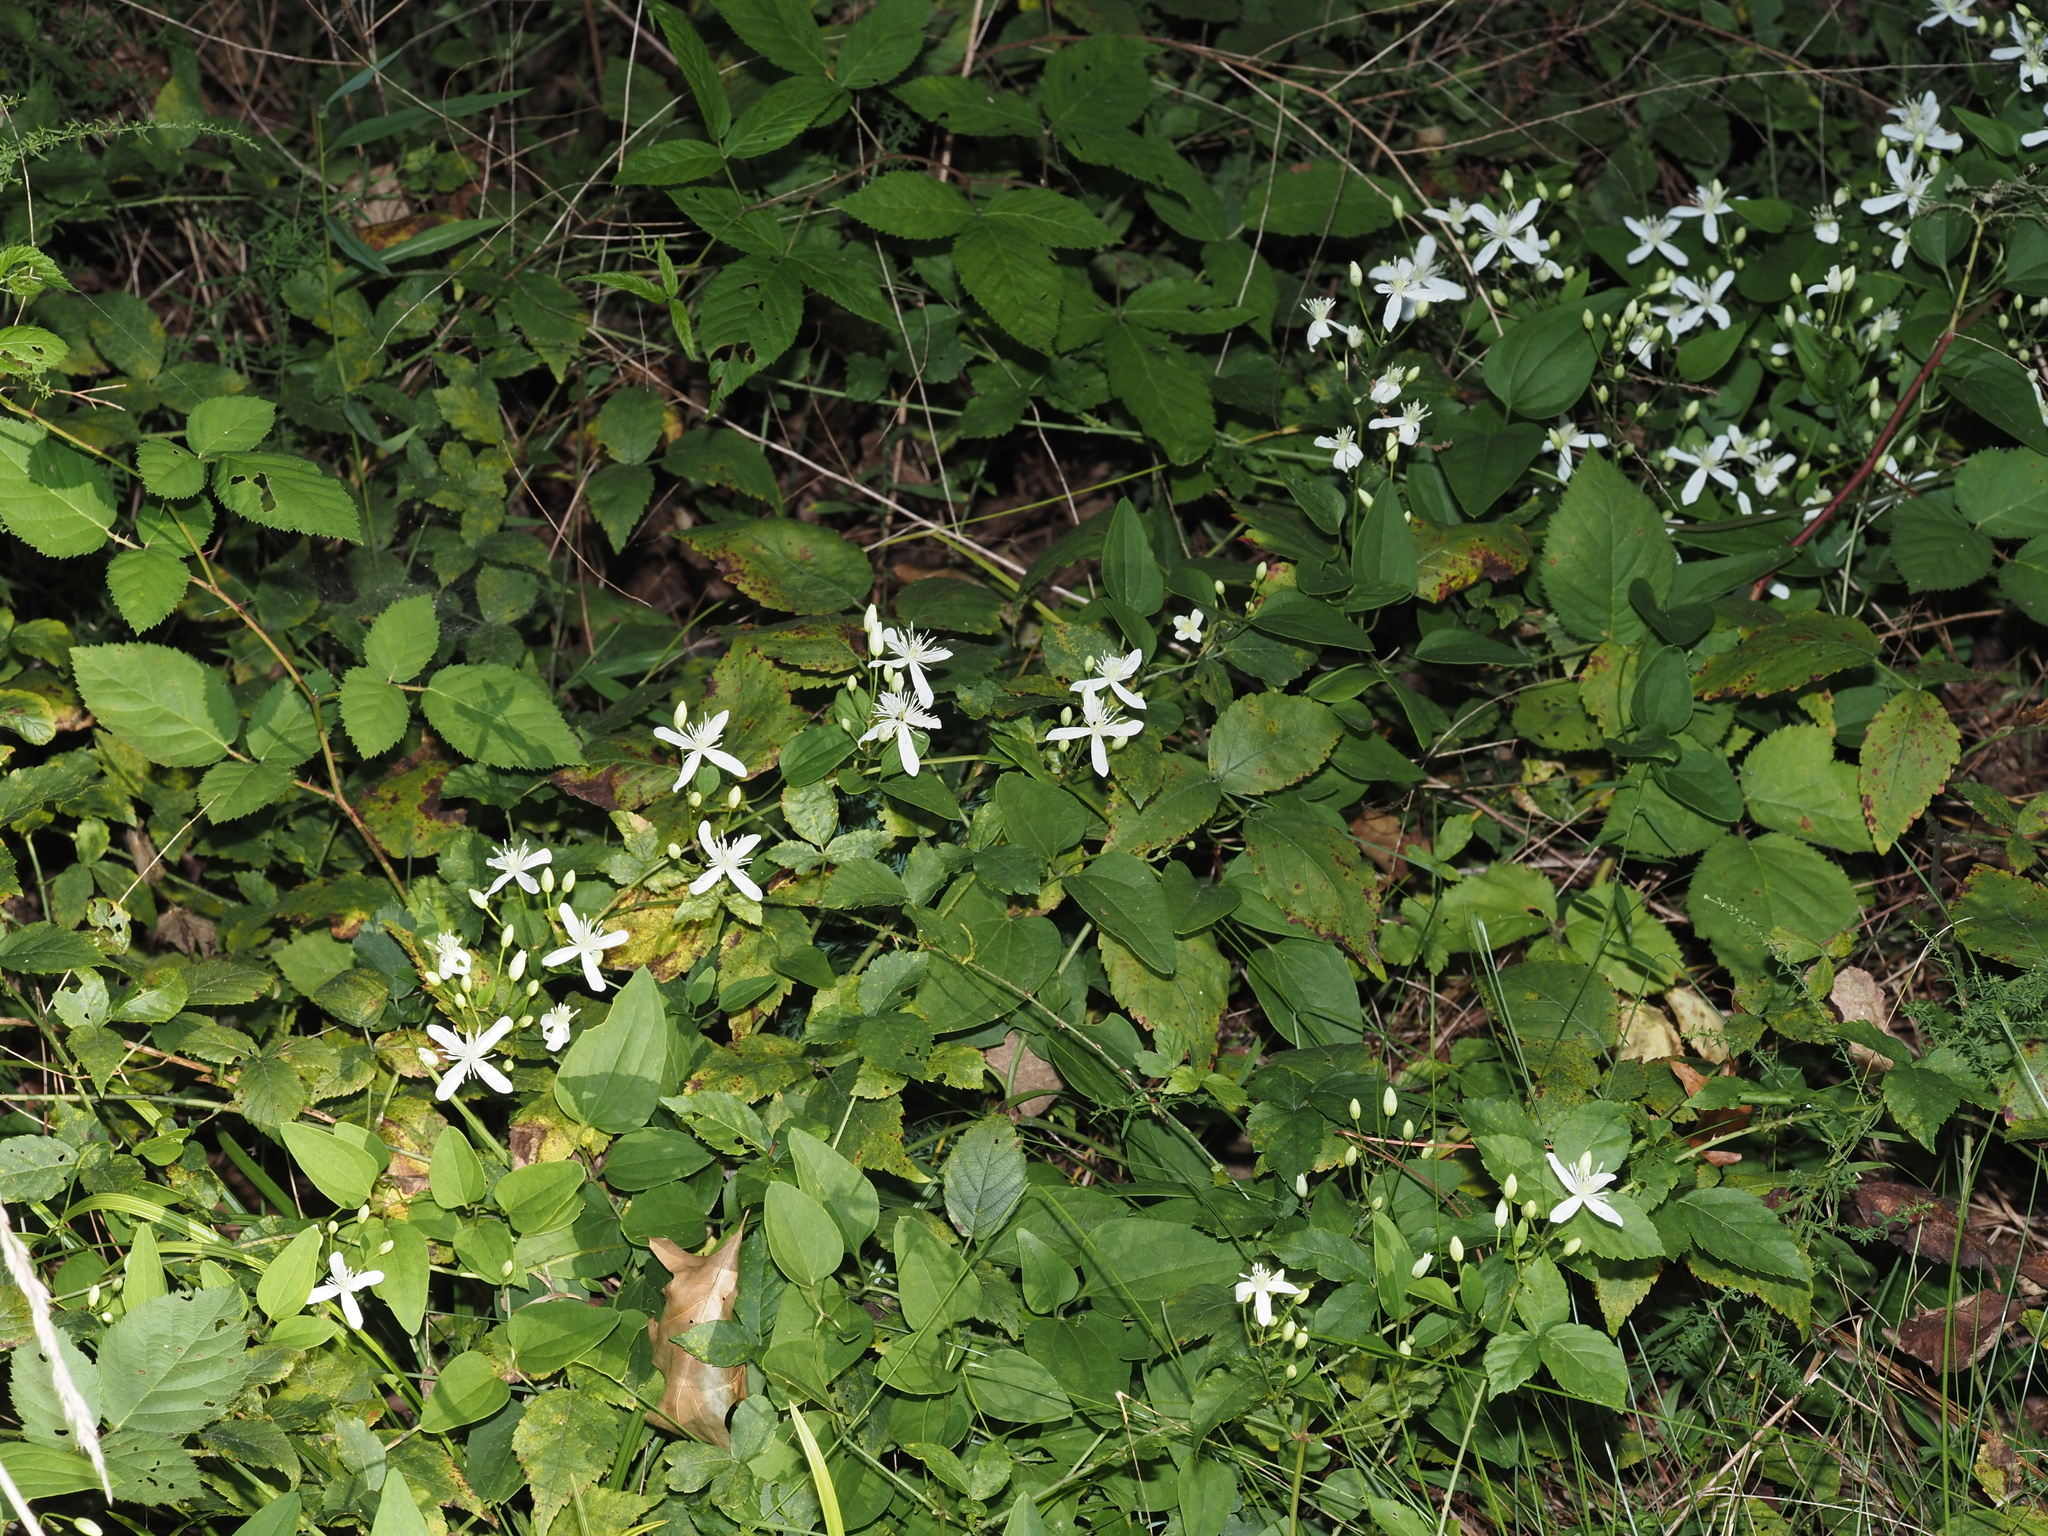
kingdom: Plantae
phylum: Tracheophyta
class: Magnoliopsida
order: Ranunculales
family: Ranunculaceae
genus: Clematis
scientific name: Clematis terniflora
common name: Sweet autumn clematis
